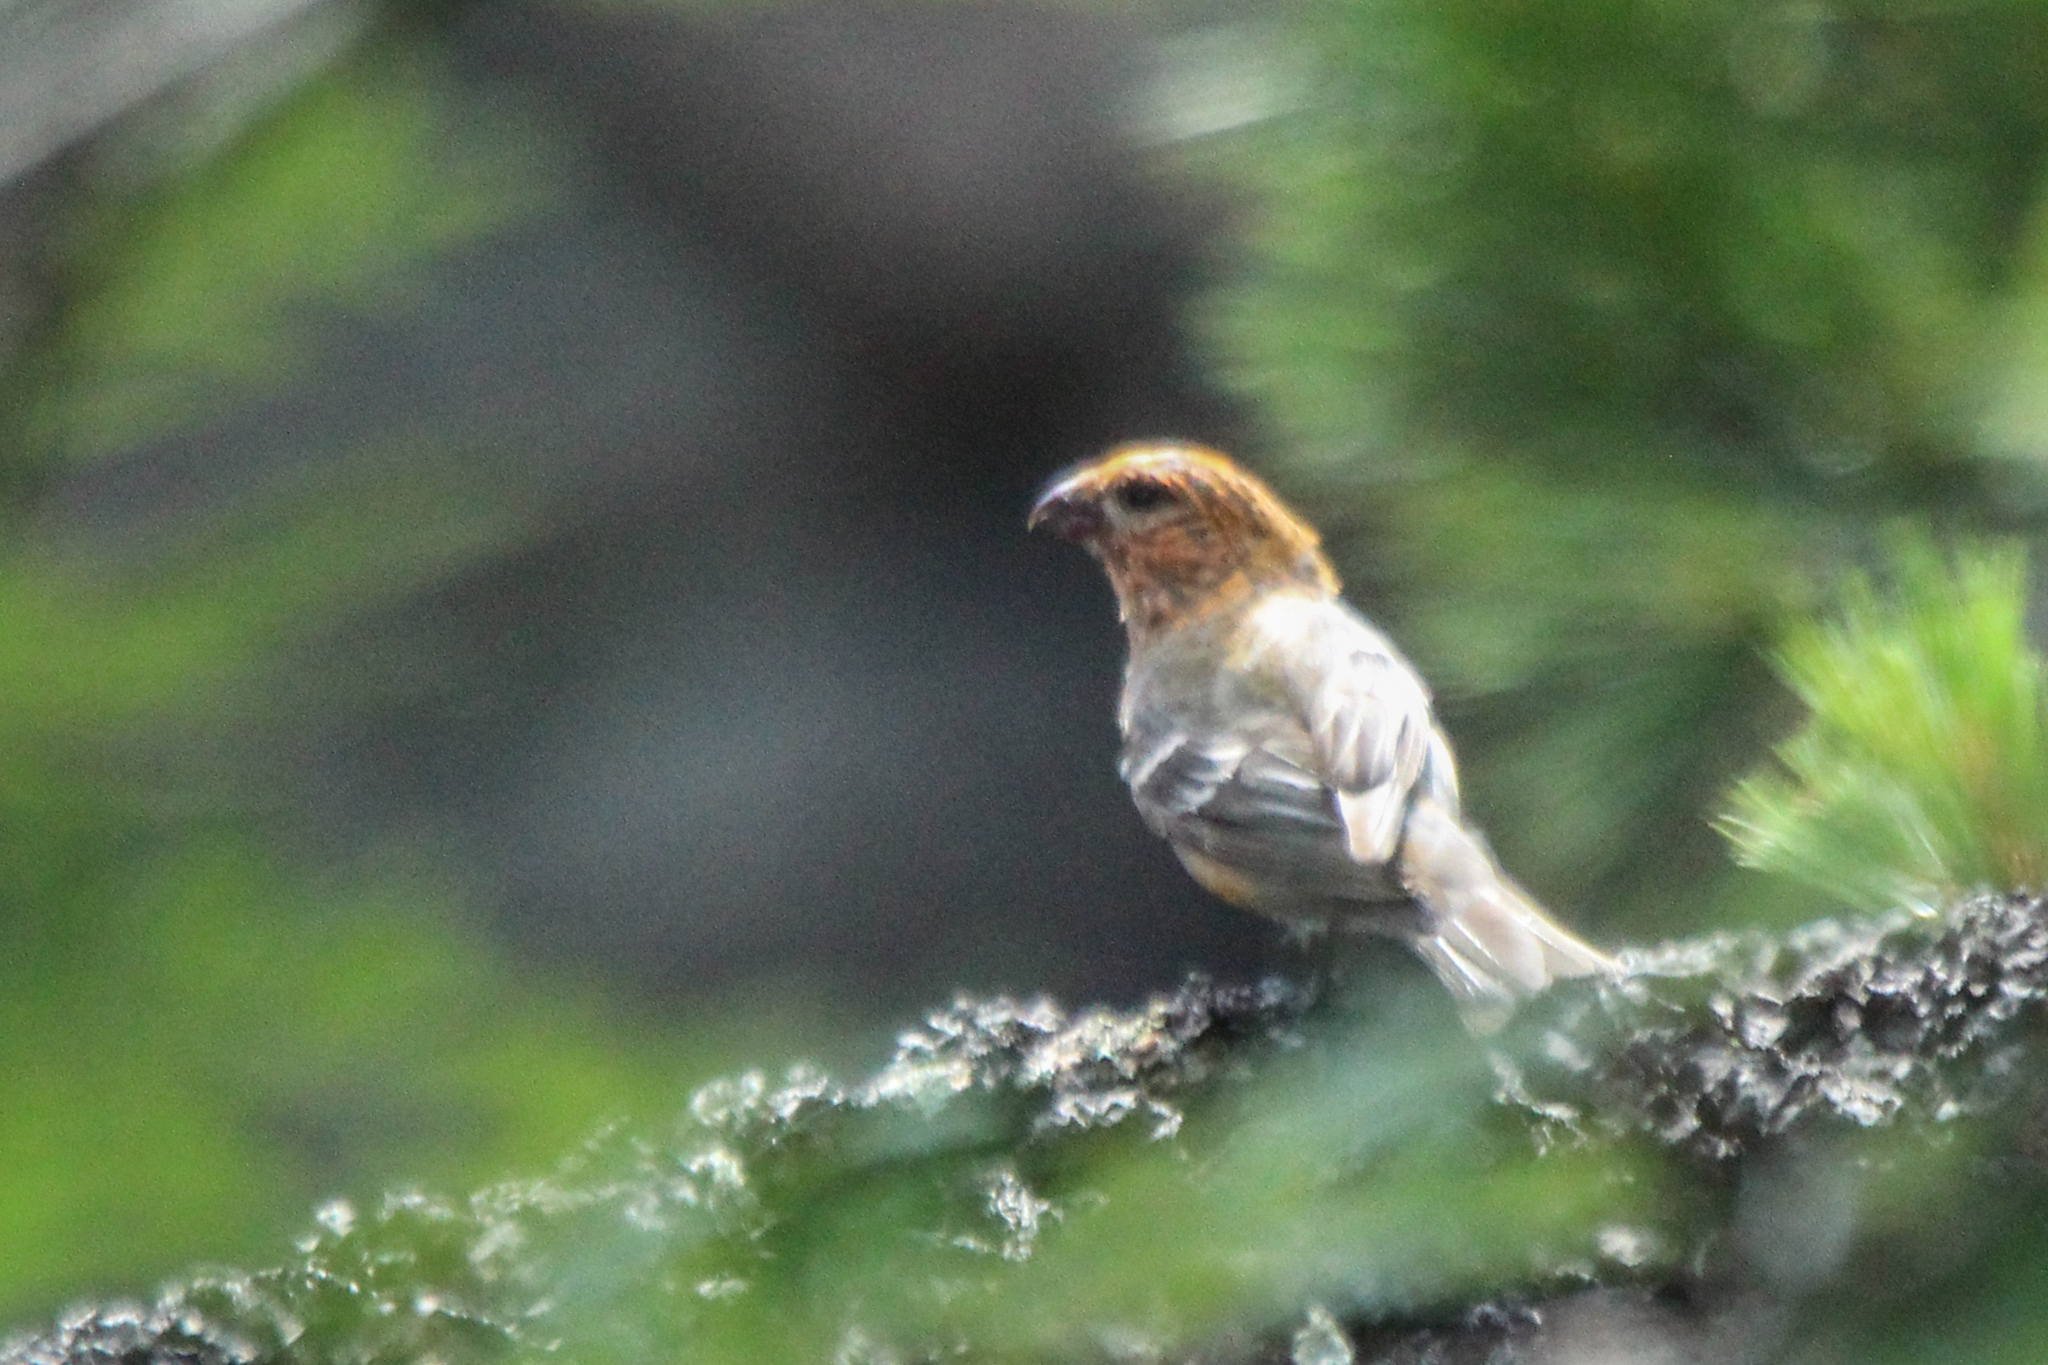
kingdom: Animalia
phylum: Chordata
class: Aves
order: Passeriformes
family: Fringillidae
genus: Pinicola
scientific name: Pinicola enucleator
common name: Pine grosbeak
